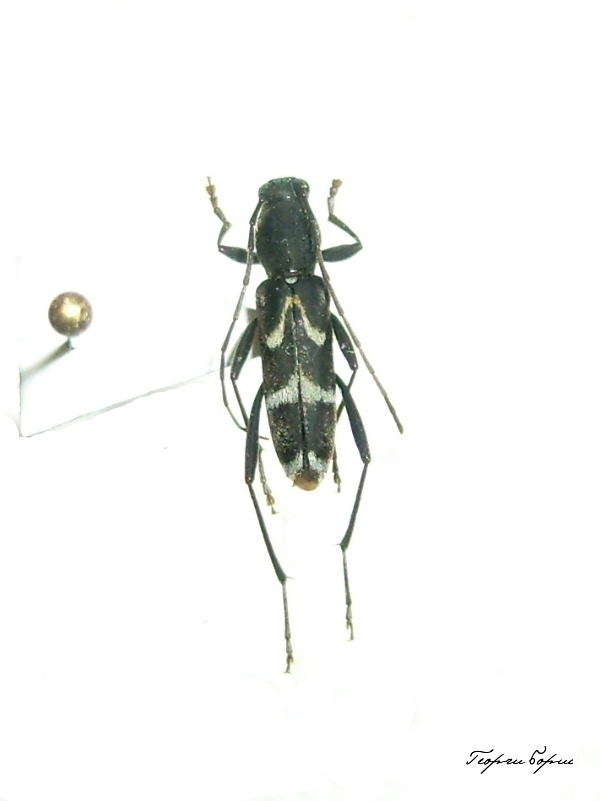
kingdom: Animalia
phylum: Arthropoda
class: Insecta
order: Coleoptera
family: Cerambycidae
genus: Rhaphuma
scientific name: Rhaphuma gracilipes
